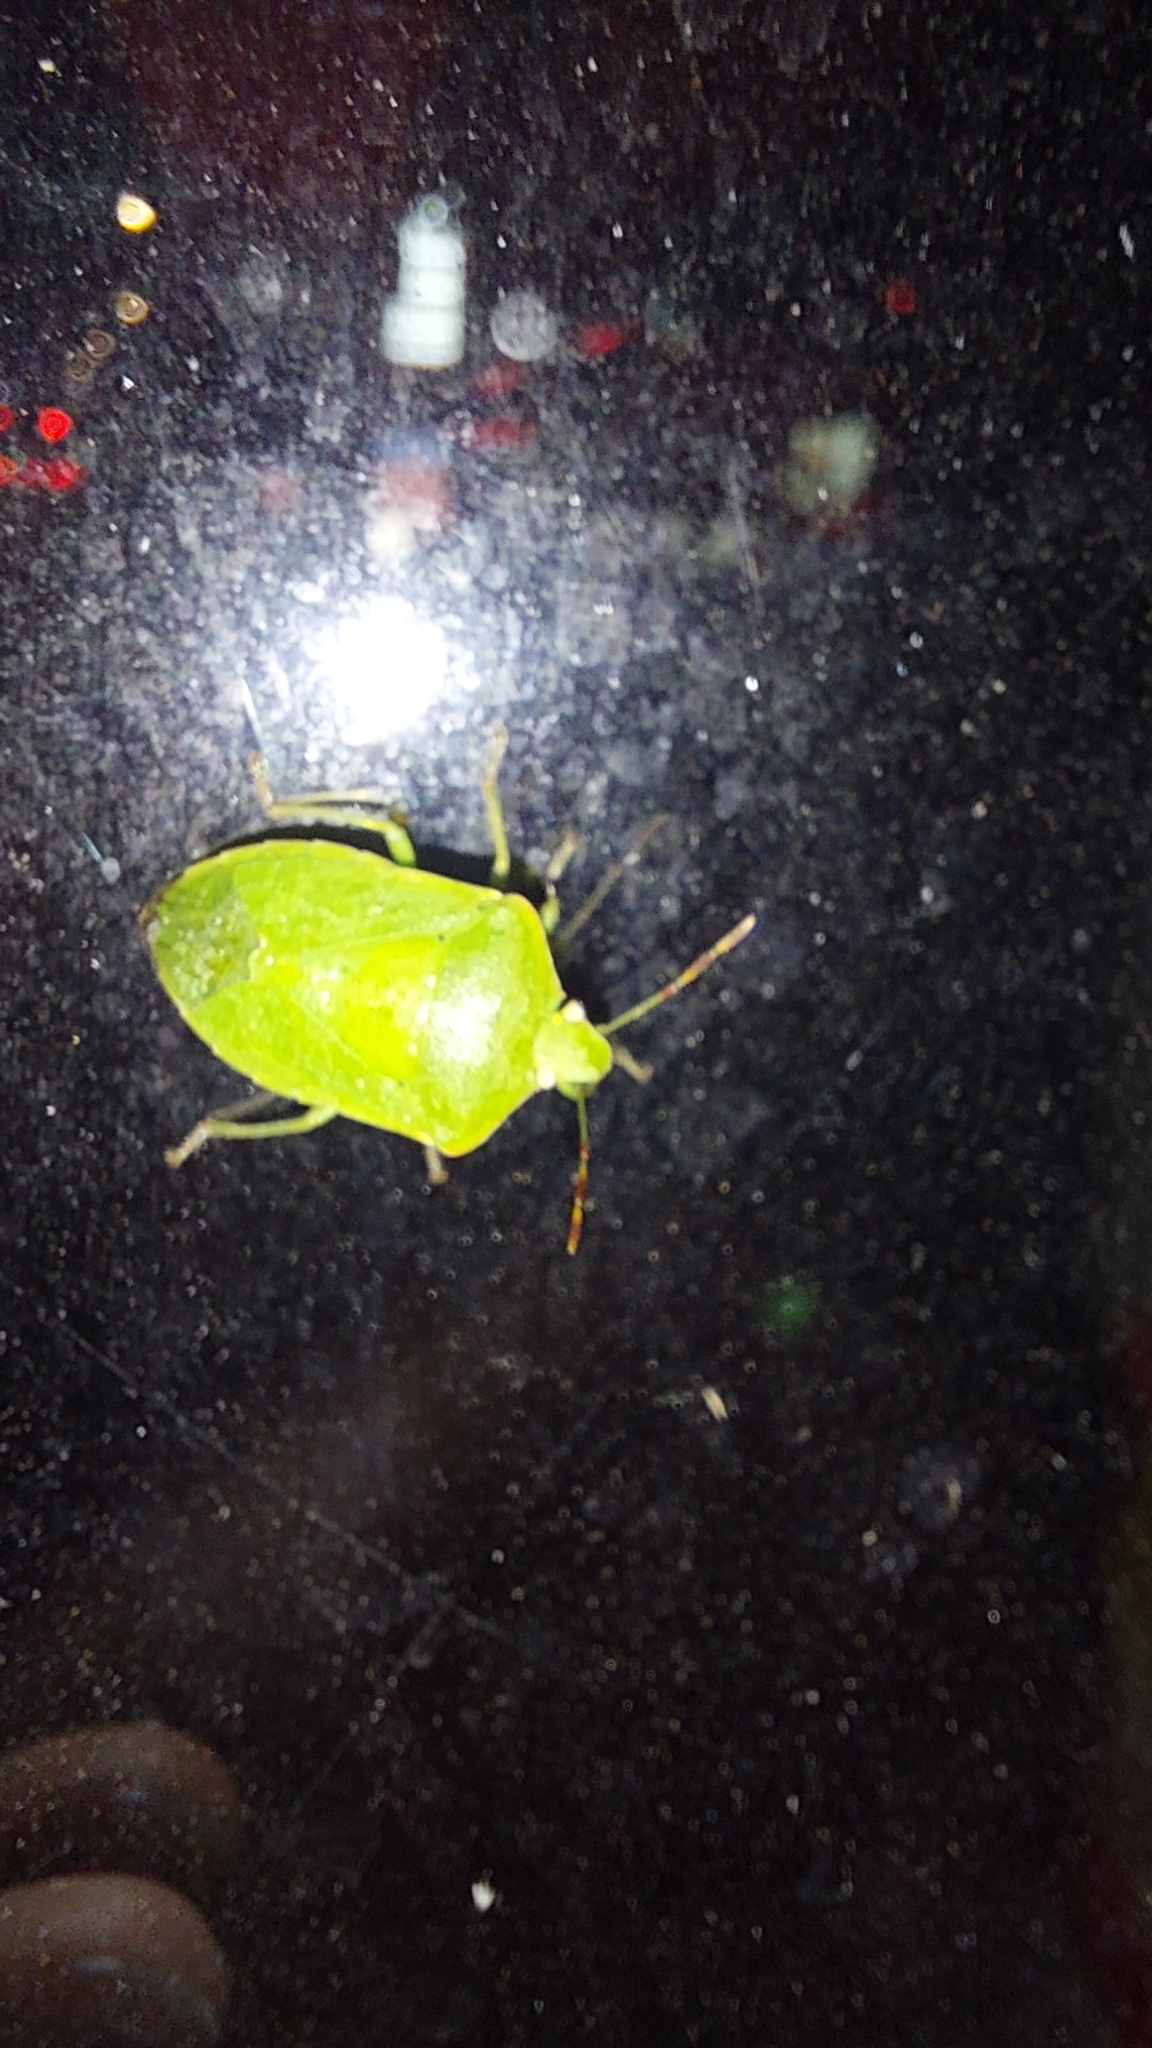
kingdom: Animalia
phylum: Arthropoda
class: Insecta
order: Hemiptera
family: Pentatomidae
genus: Nezara
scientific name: Nezara viridula
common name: Southern green stink bug
